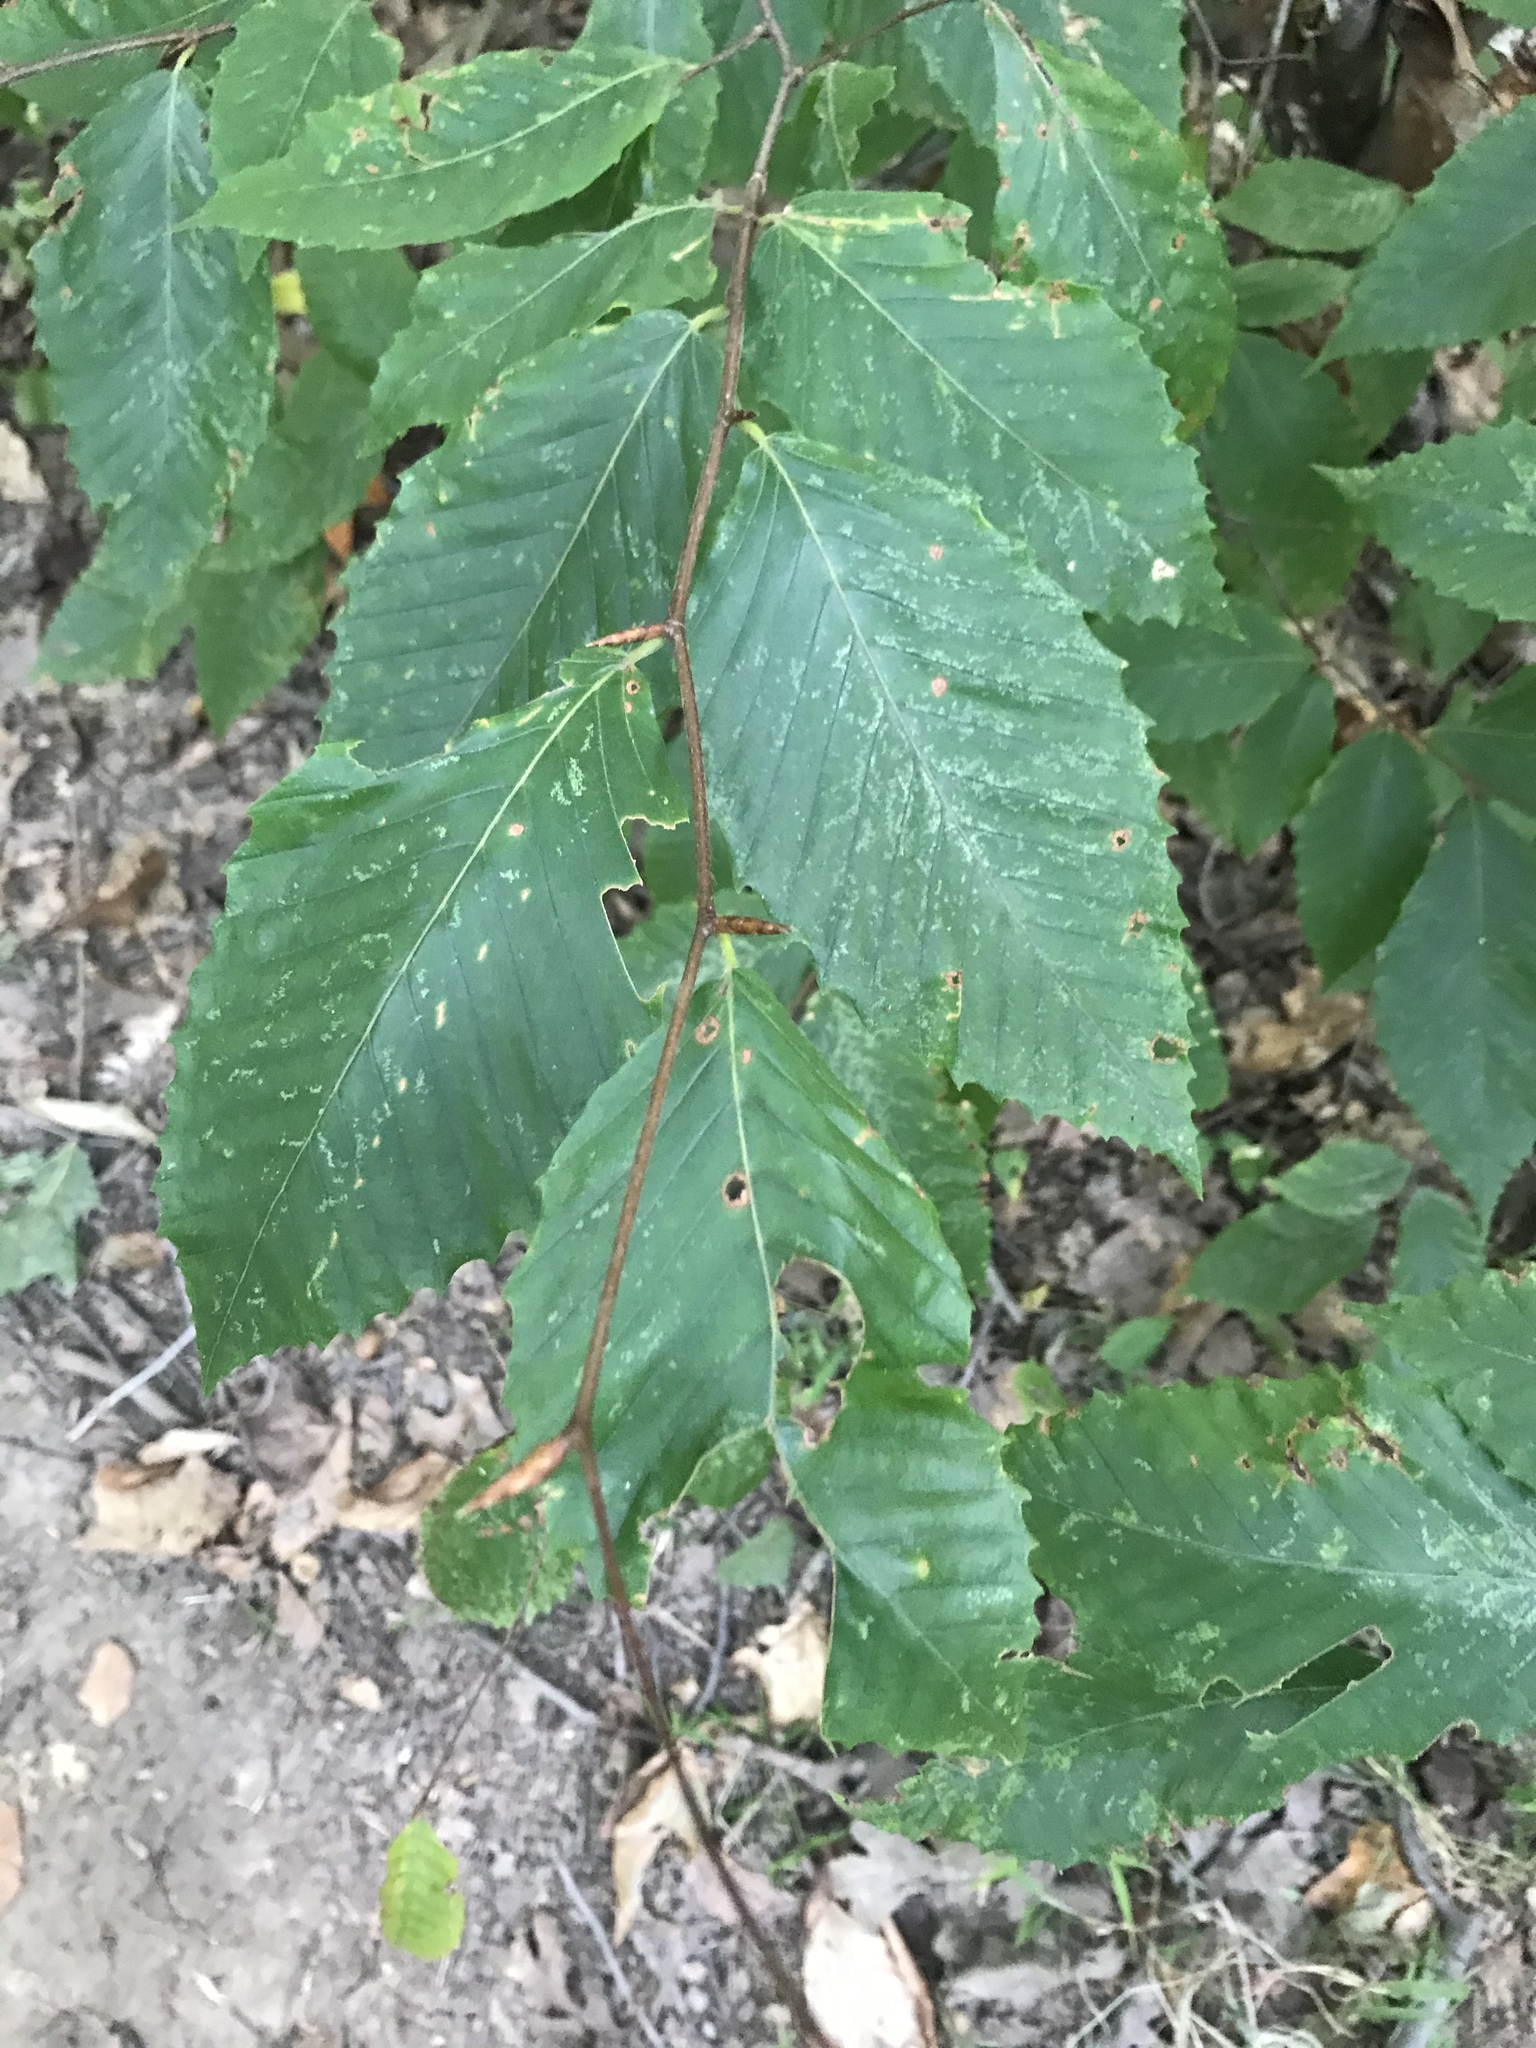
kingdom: Plantae
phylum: Tracheophyta
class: Magnoliopsida
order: Fagales
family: Fagaceae
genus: Fagus
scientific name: Fagus grandifolia
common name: American beech
